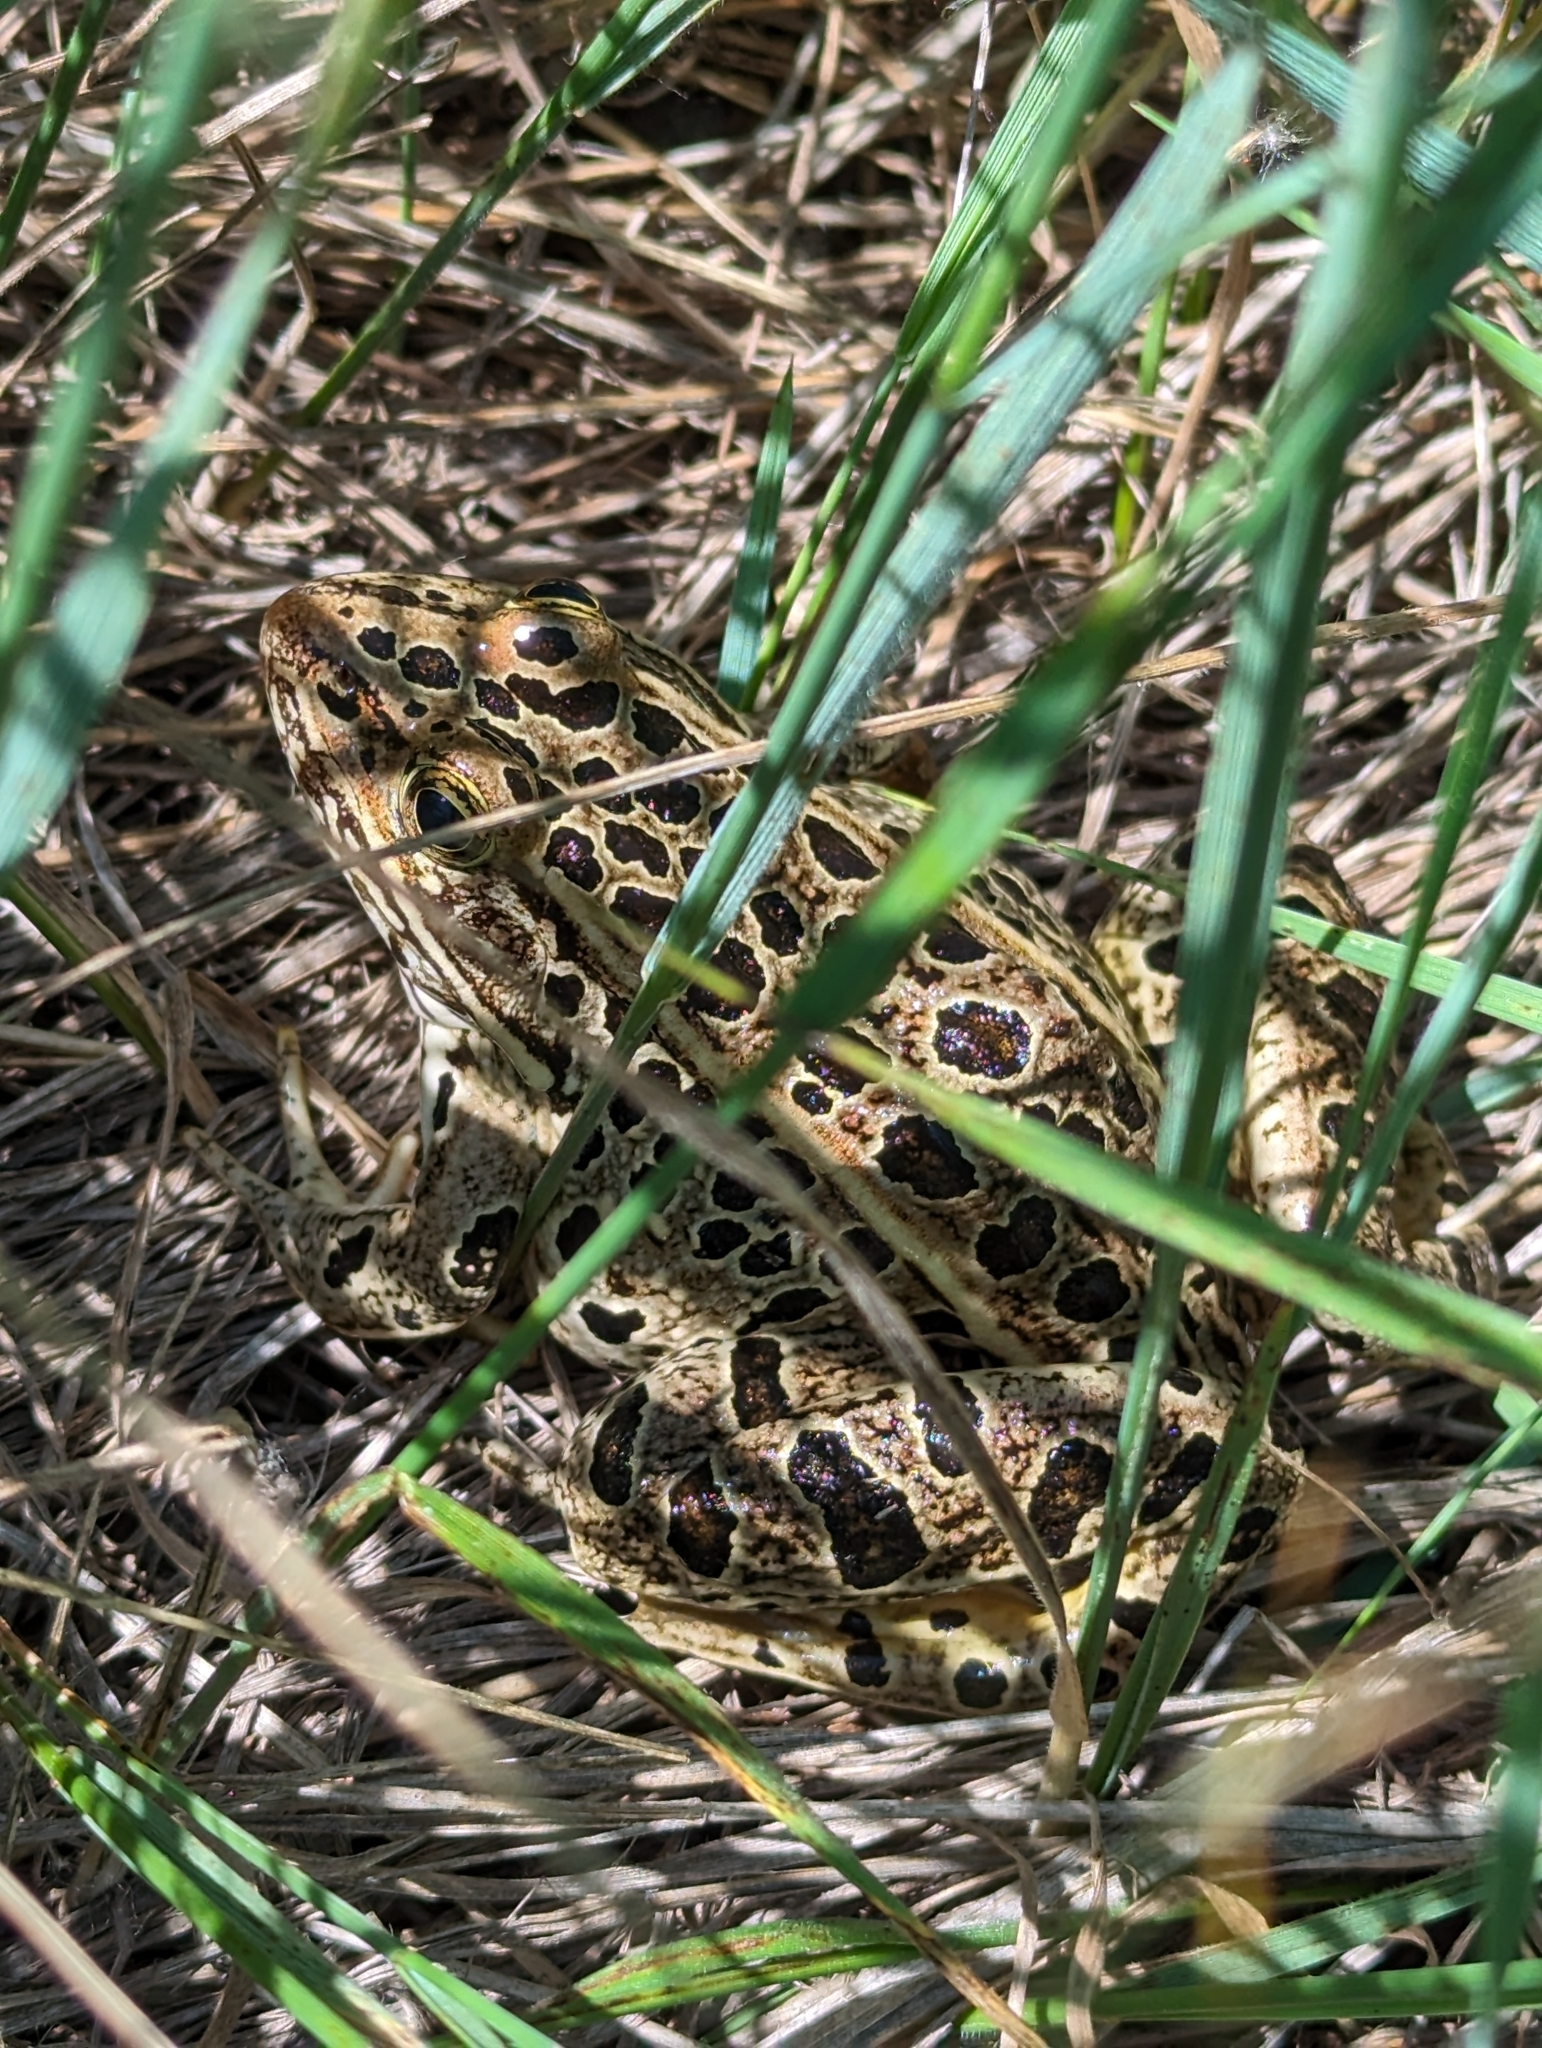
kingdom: Animalia
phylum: Chordata
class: Amphibia
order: Anura
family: Ranidae
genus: Lithobates
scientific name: Lithobates pipiens
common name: Northern leopard frog
